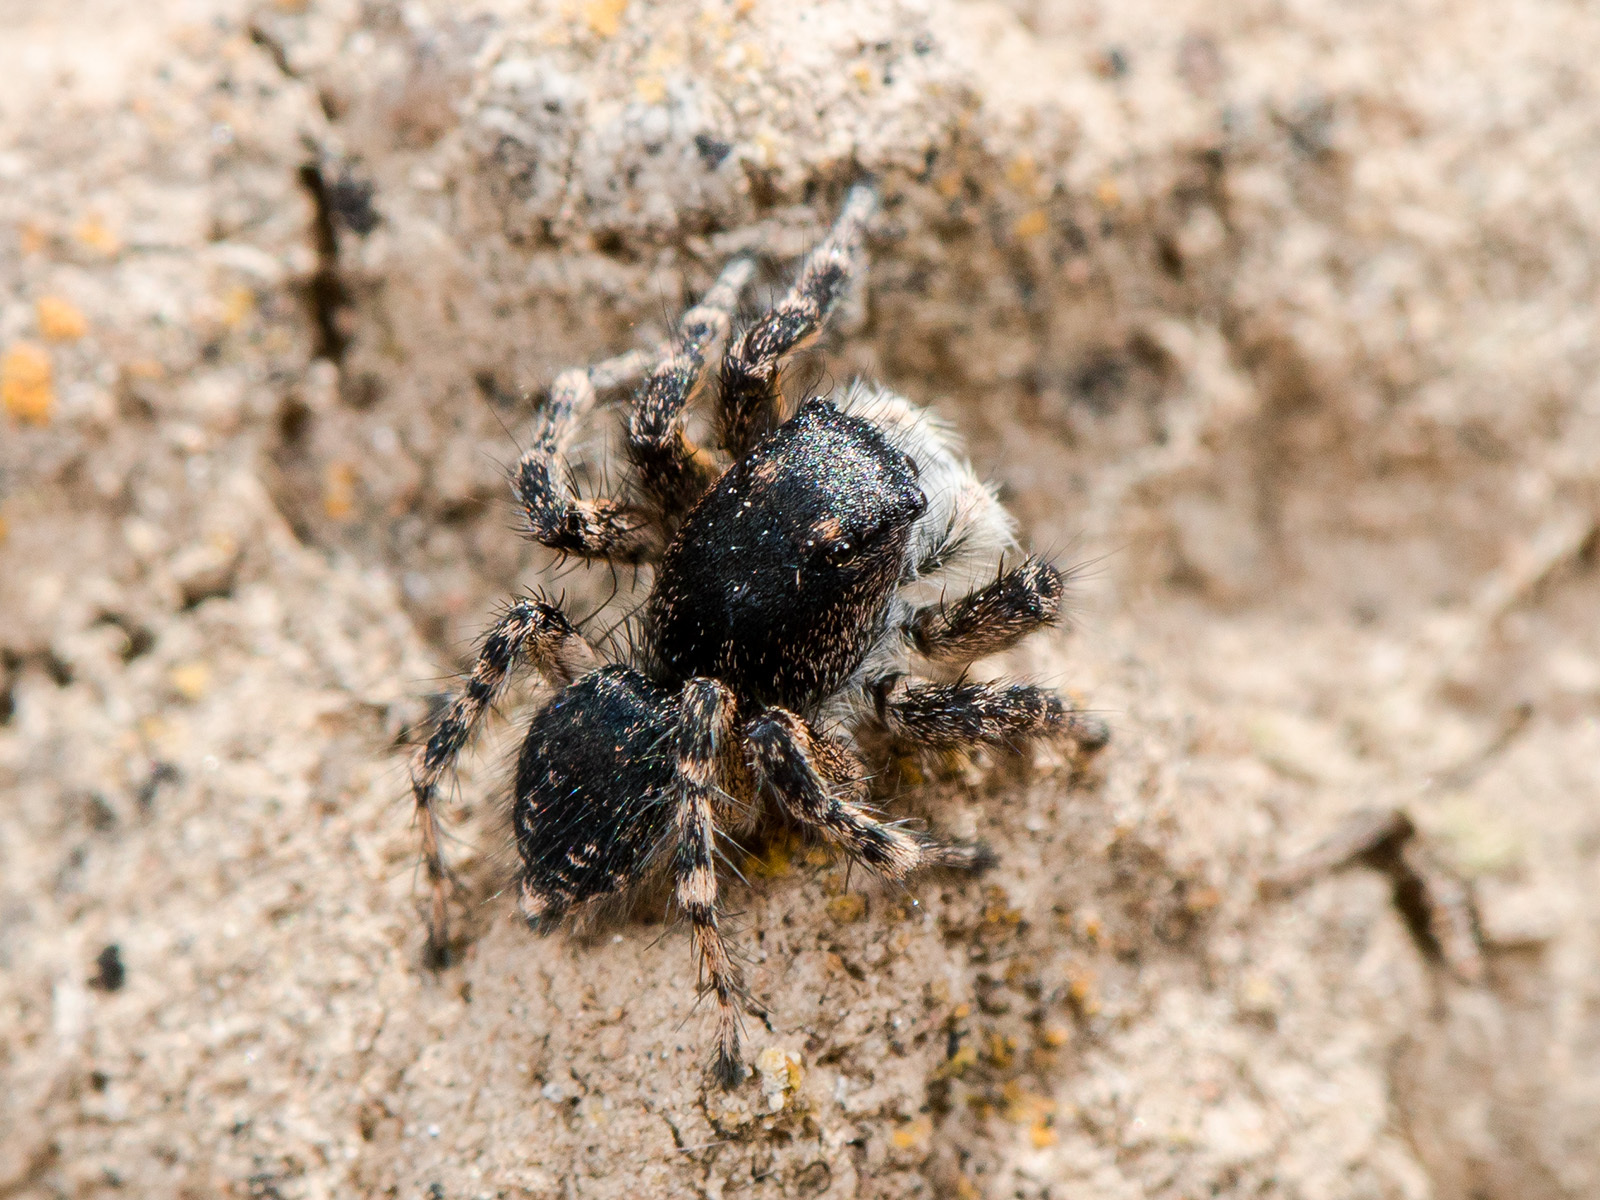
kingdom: Animalia
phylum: Arthropoda
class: Arachnida
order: Araneae
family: Salticidae
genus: Aelurillus
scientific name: Aelurillus dubatolovi
